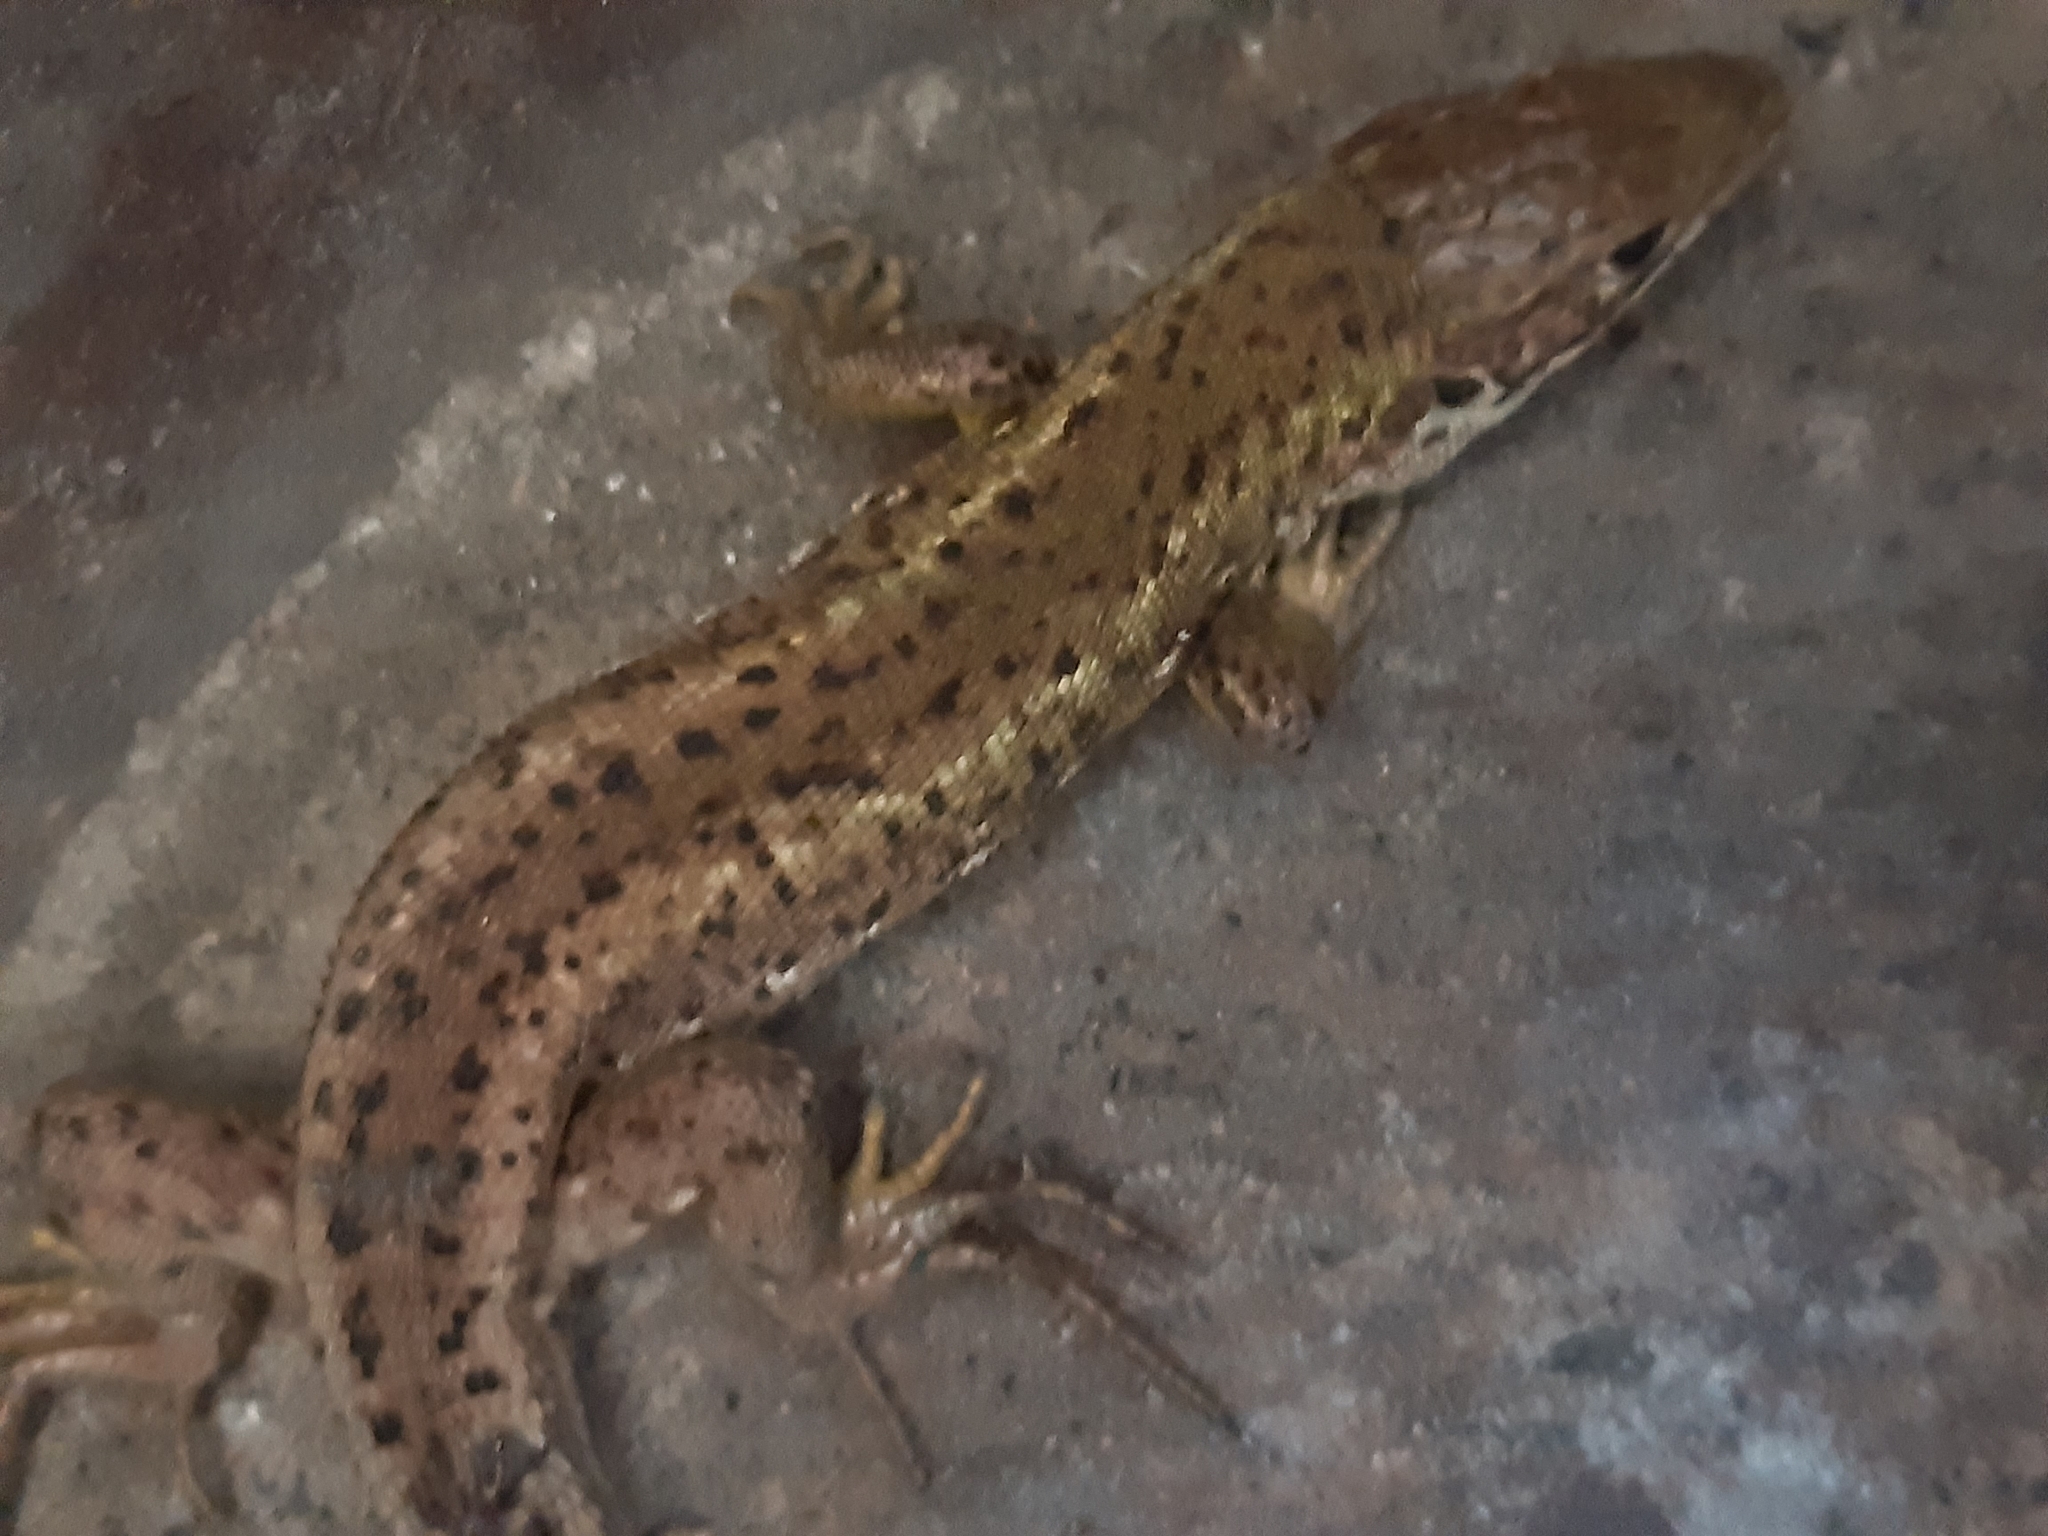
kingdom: Animalia
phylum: Chordata
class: Squamata
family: Lacertidae
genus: Lacerta
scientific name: Lacerta viridis
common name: European green lizard
